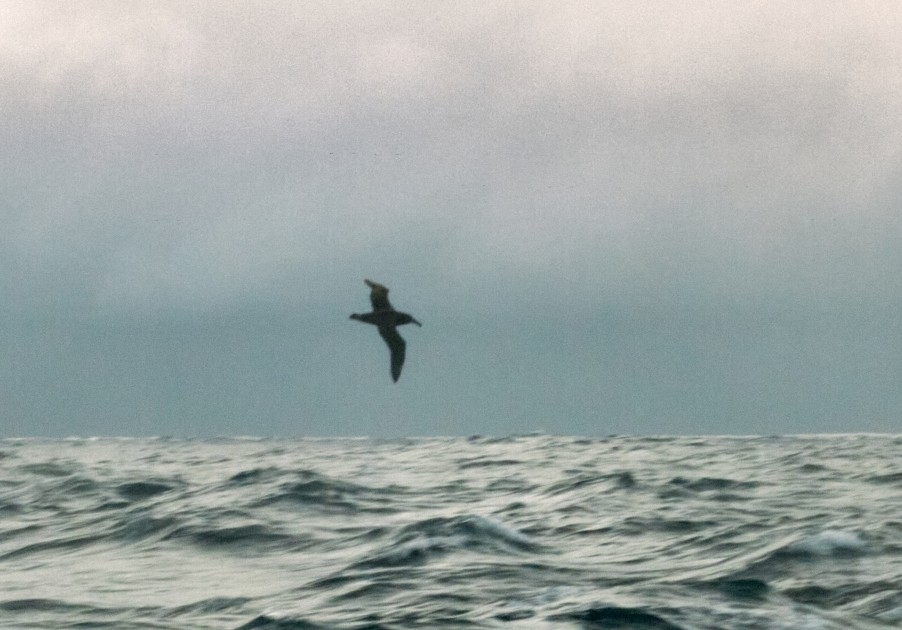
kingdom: Animalia
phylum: Chordata
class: Aves
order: Procellariiformes
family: Diomedeidae
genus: Phoebastria
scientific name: Phoebastria nigripes
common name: Black-footed albatross
